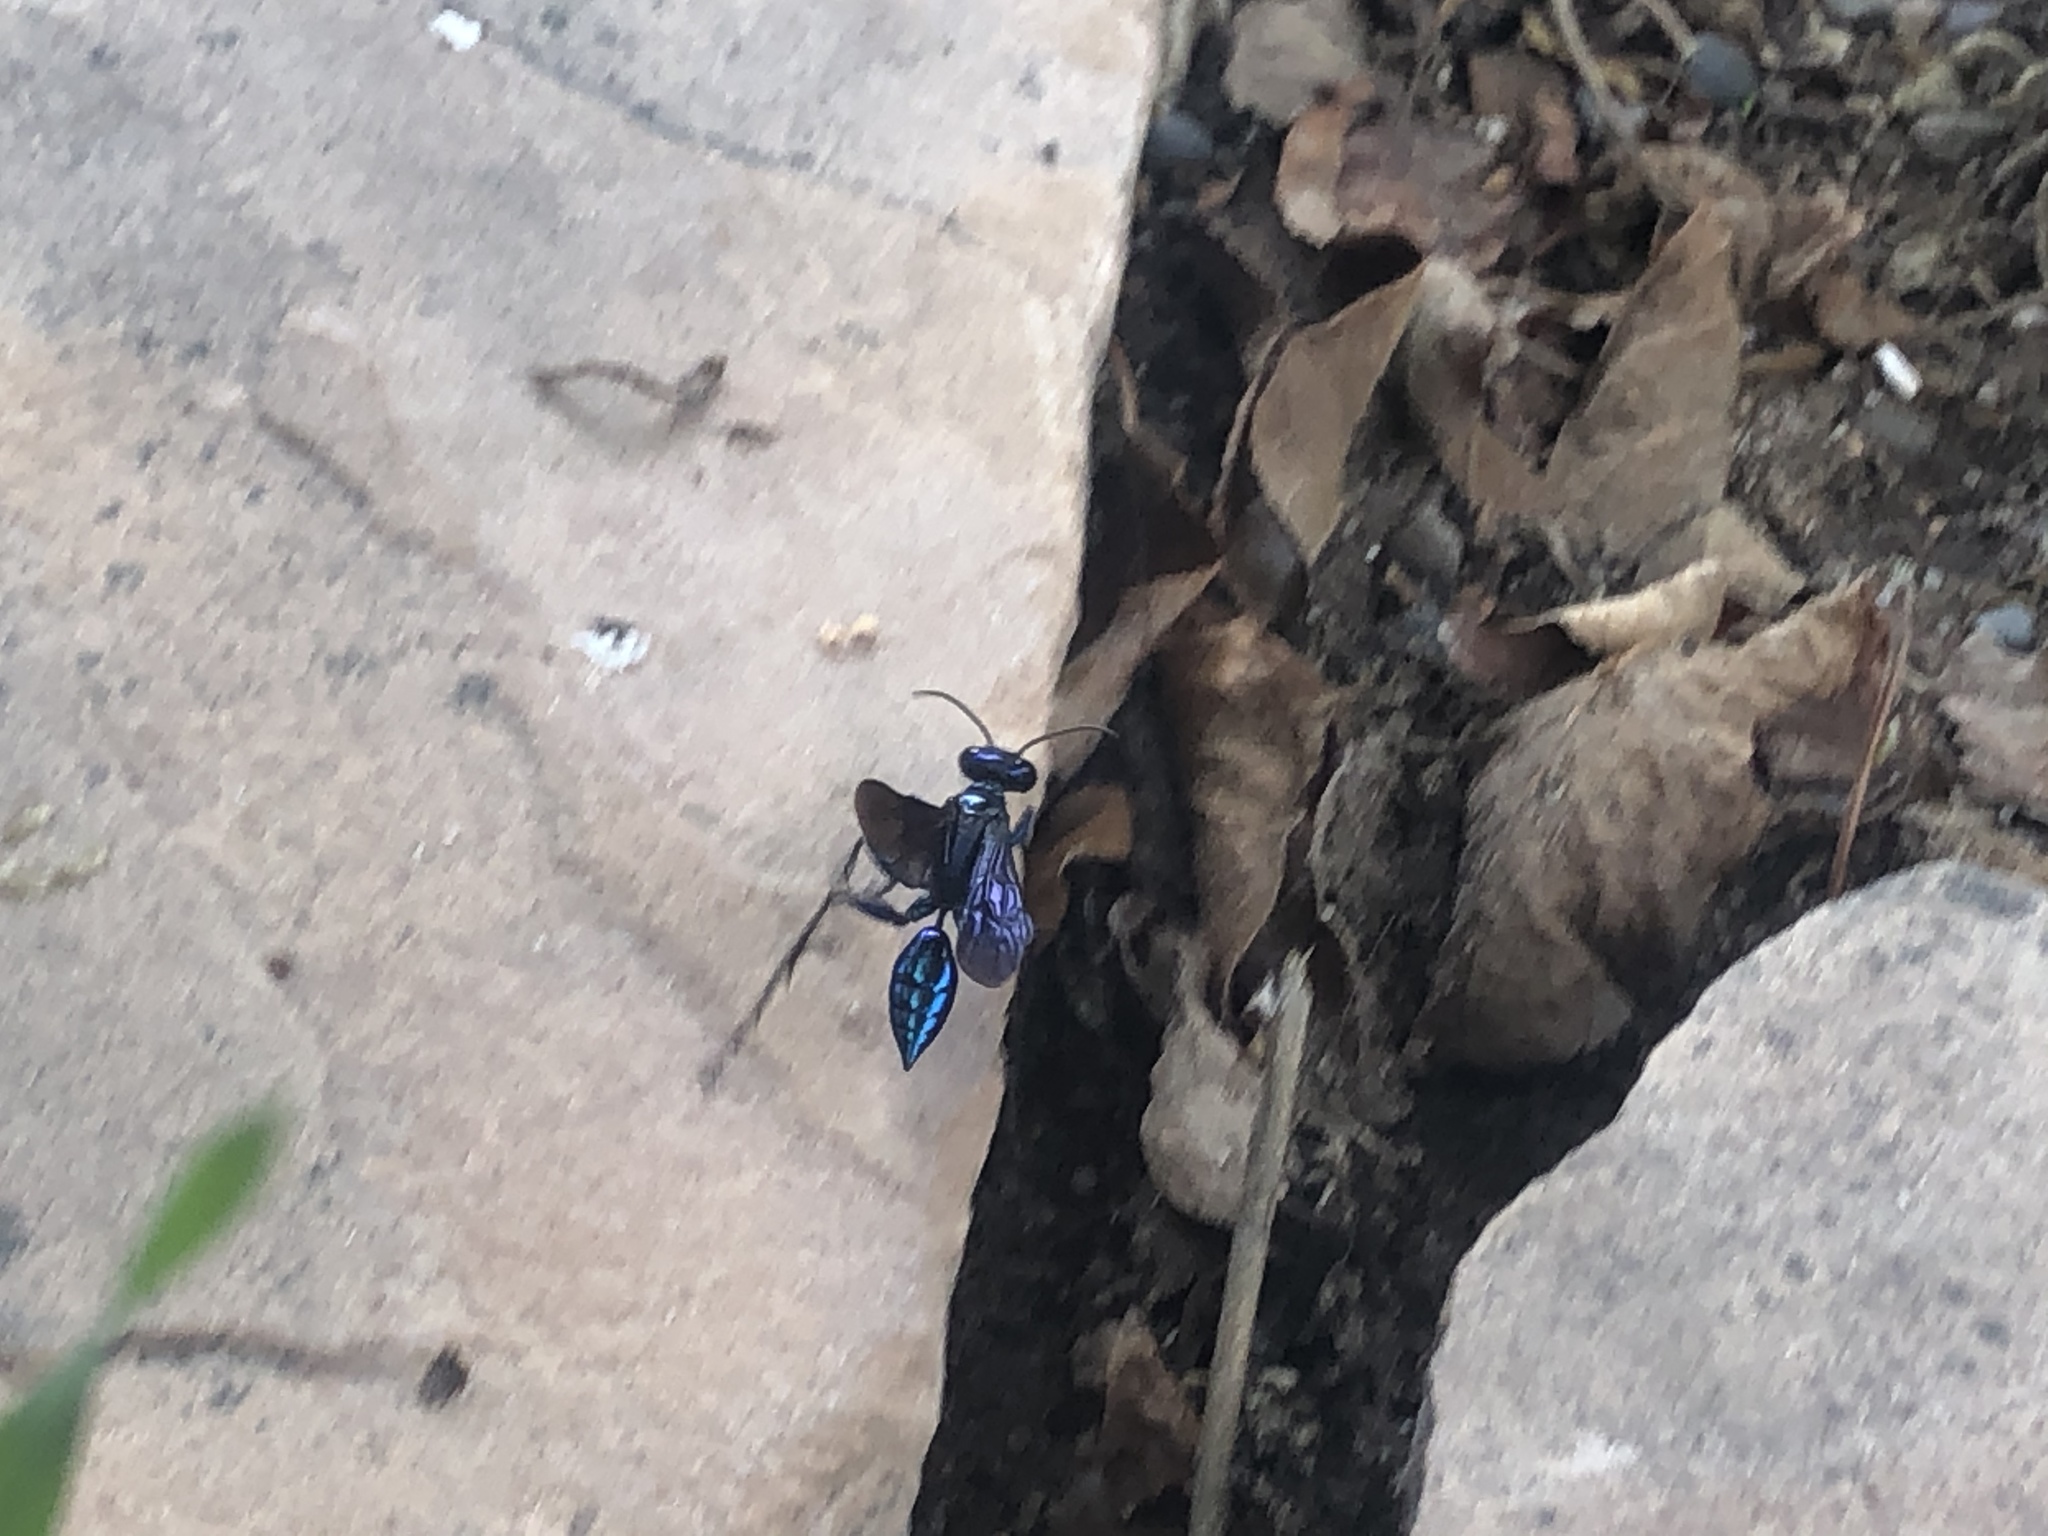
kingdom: Animalia
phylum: Arthropoda
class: Insecta
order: Hymenoptera
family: Sphecidae
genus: Chlorion
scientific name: Chlorion
